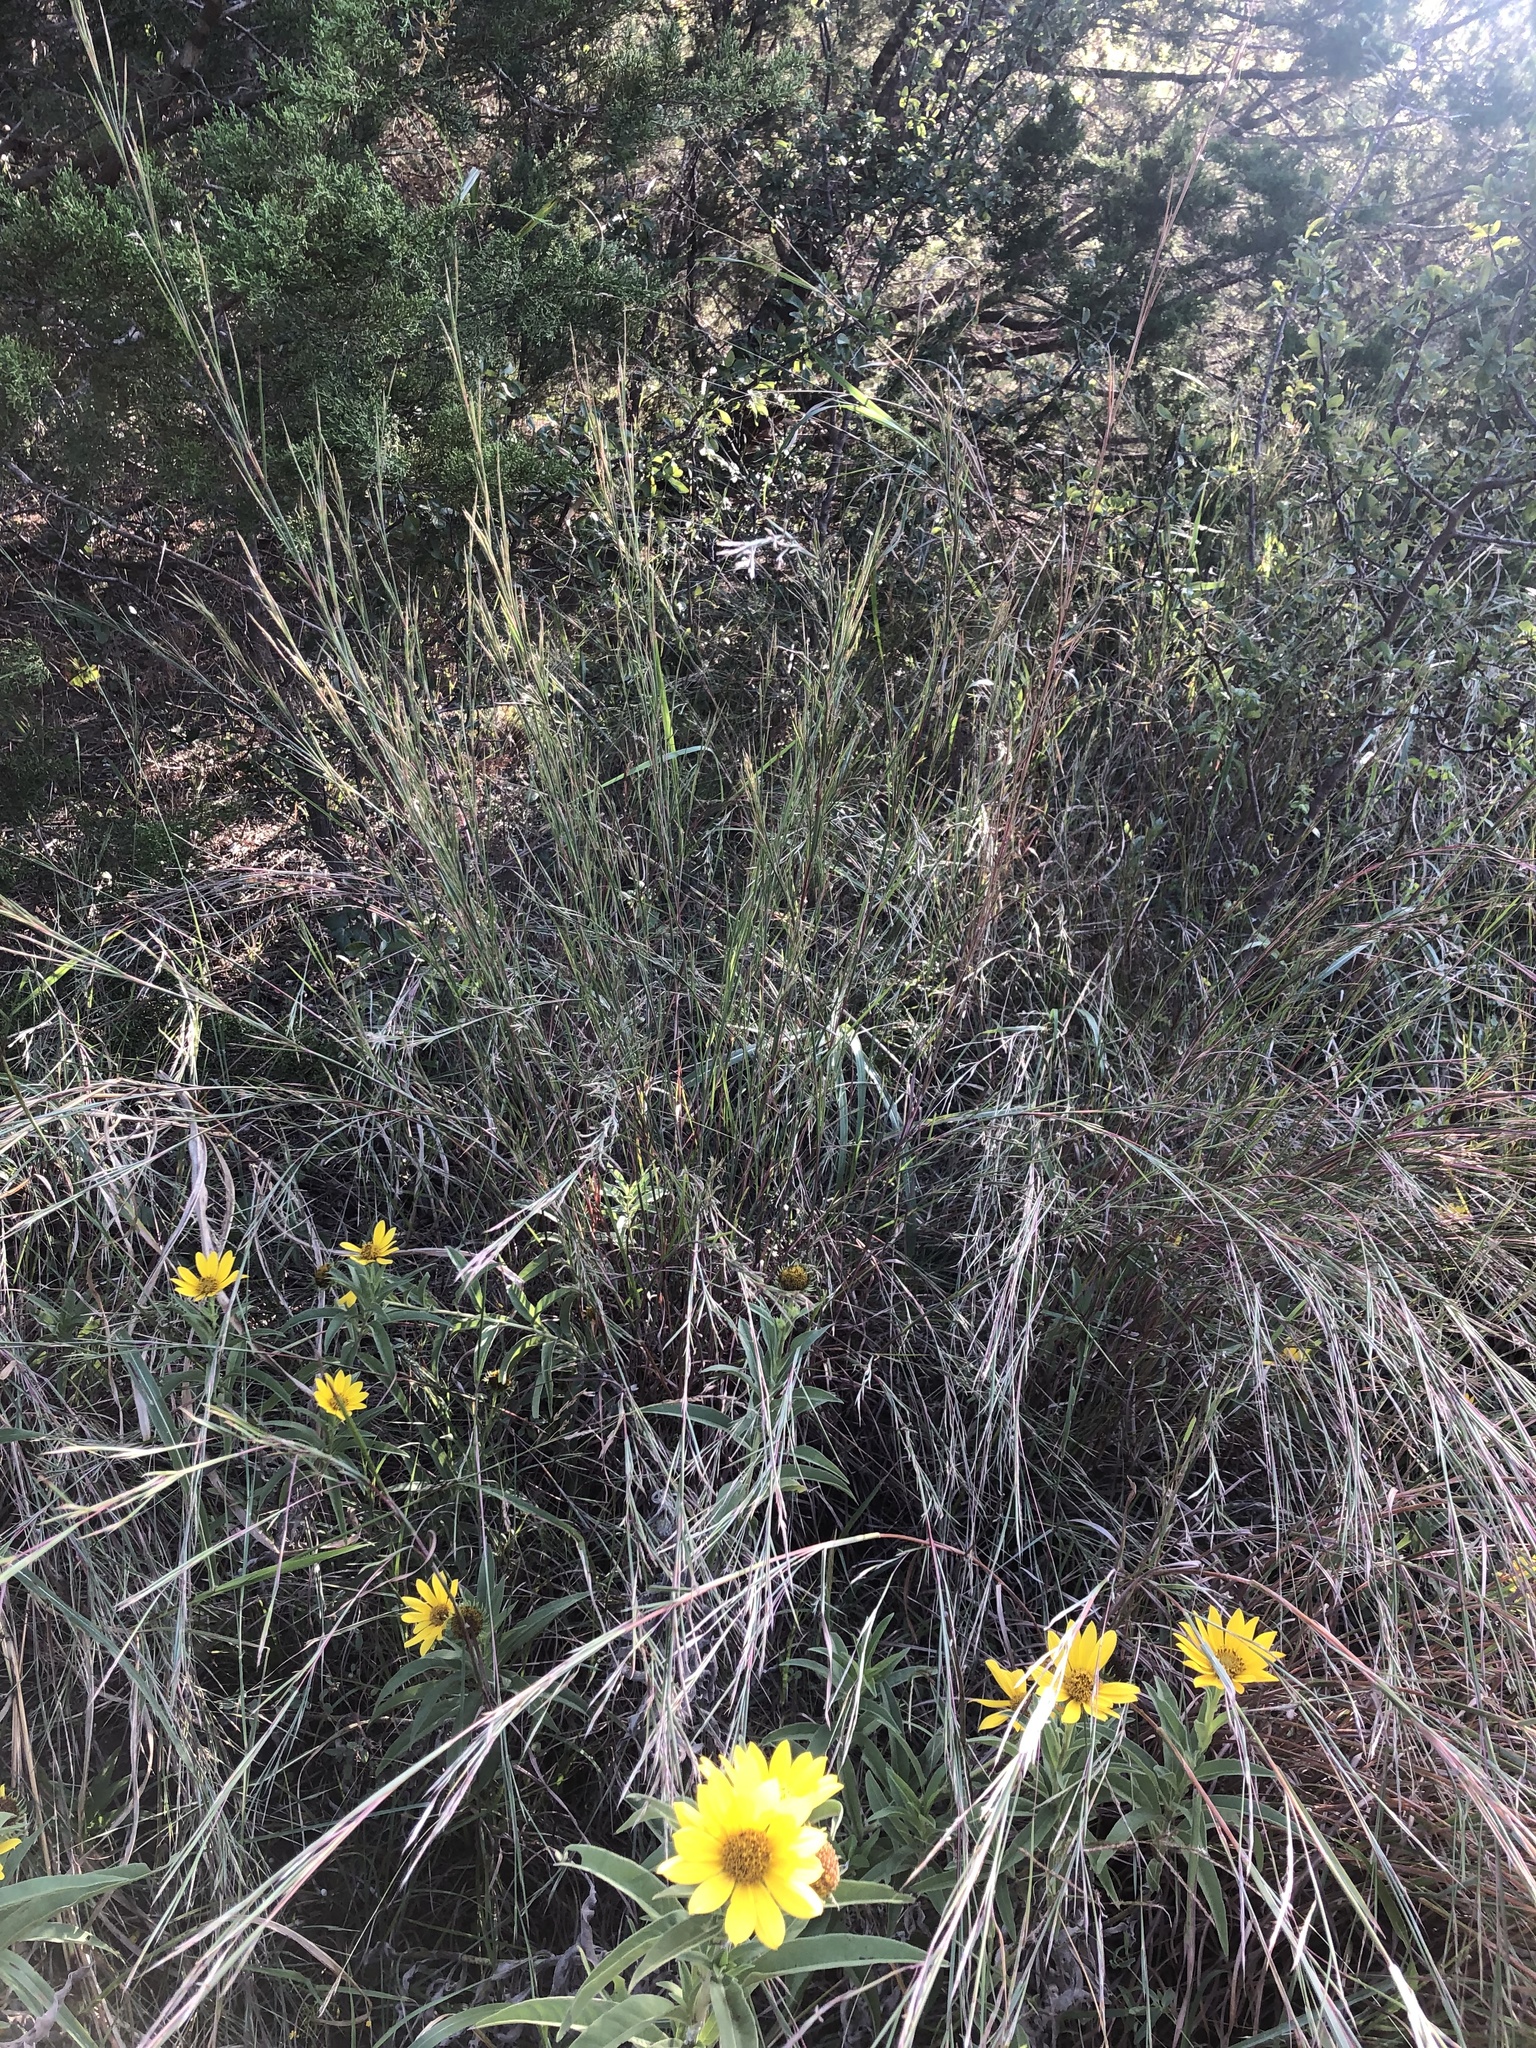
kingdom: Plantae
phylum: Tracheophyta
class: Liliopsida
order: Poales
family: Poaceae
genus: Schizachyrium
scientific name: Schizachyrium scoparium
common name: Little bluestem
